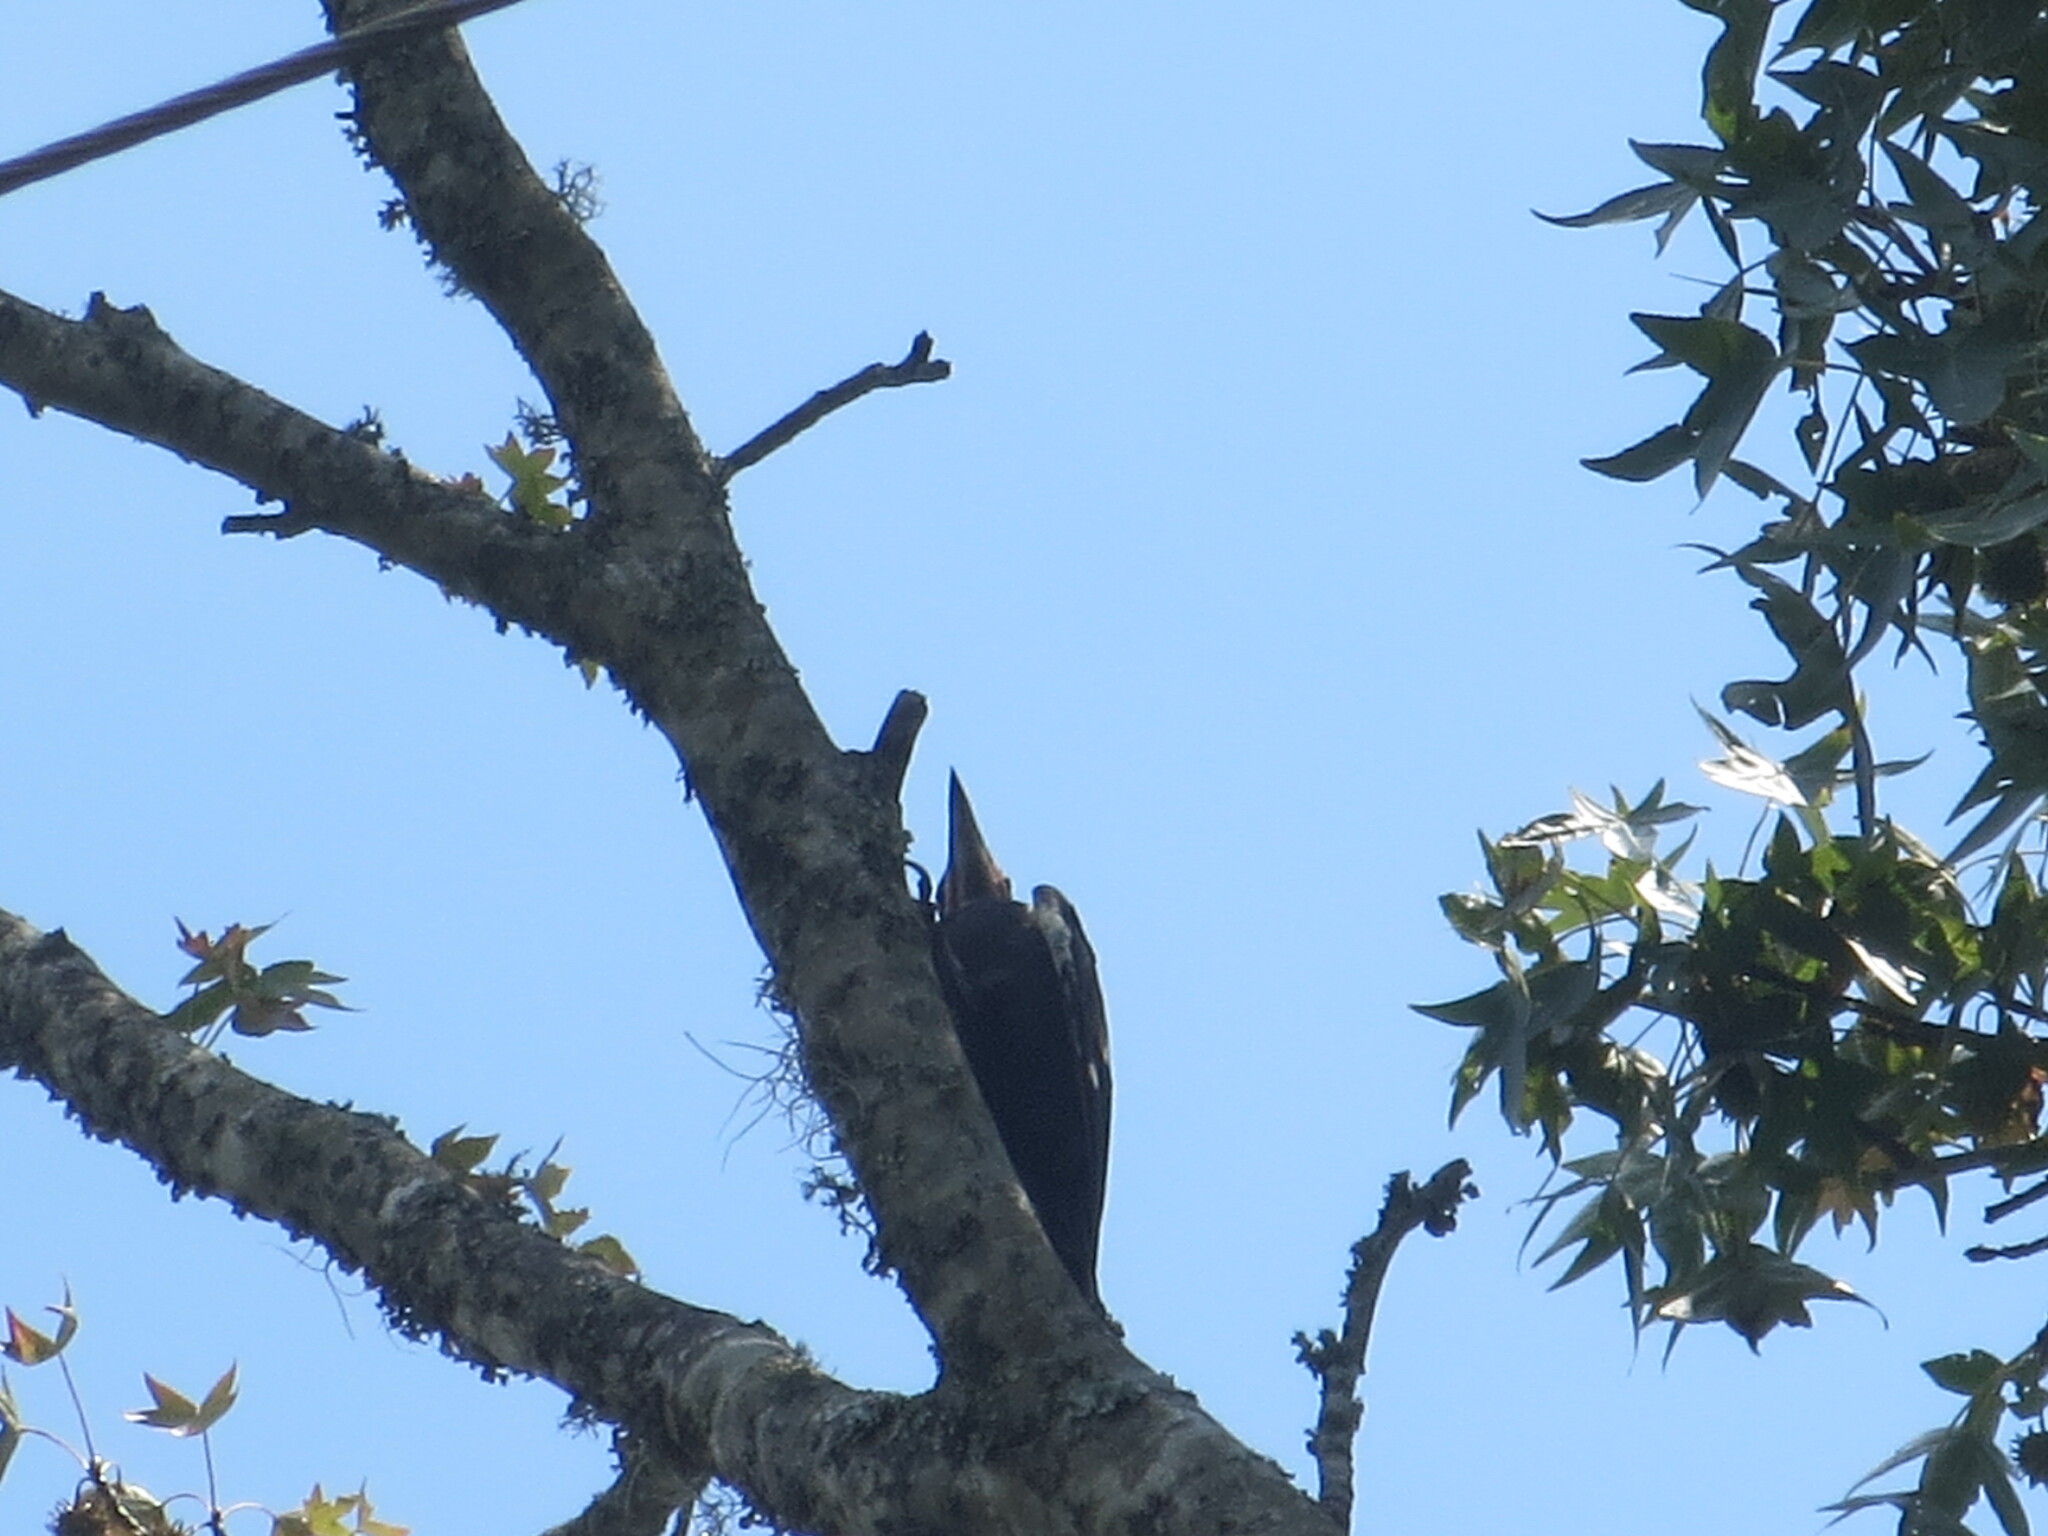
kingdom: Animalia
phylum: Chordata
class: Aves
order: Piciformes
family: Picidae
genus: Dryocopus
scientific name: Dryocopus pileatus
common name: Pileated woodpecker
